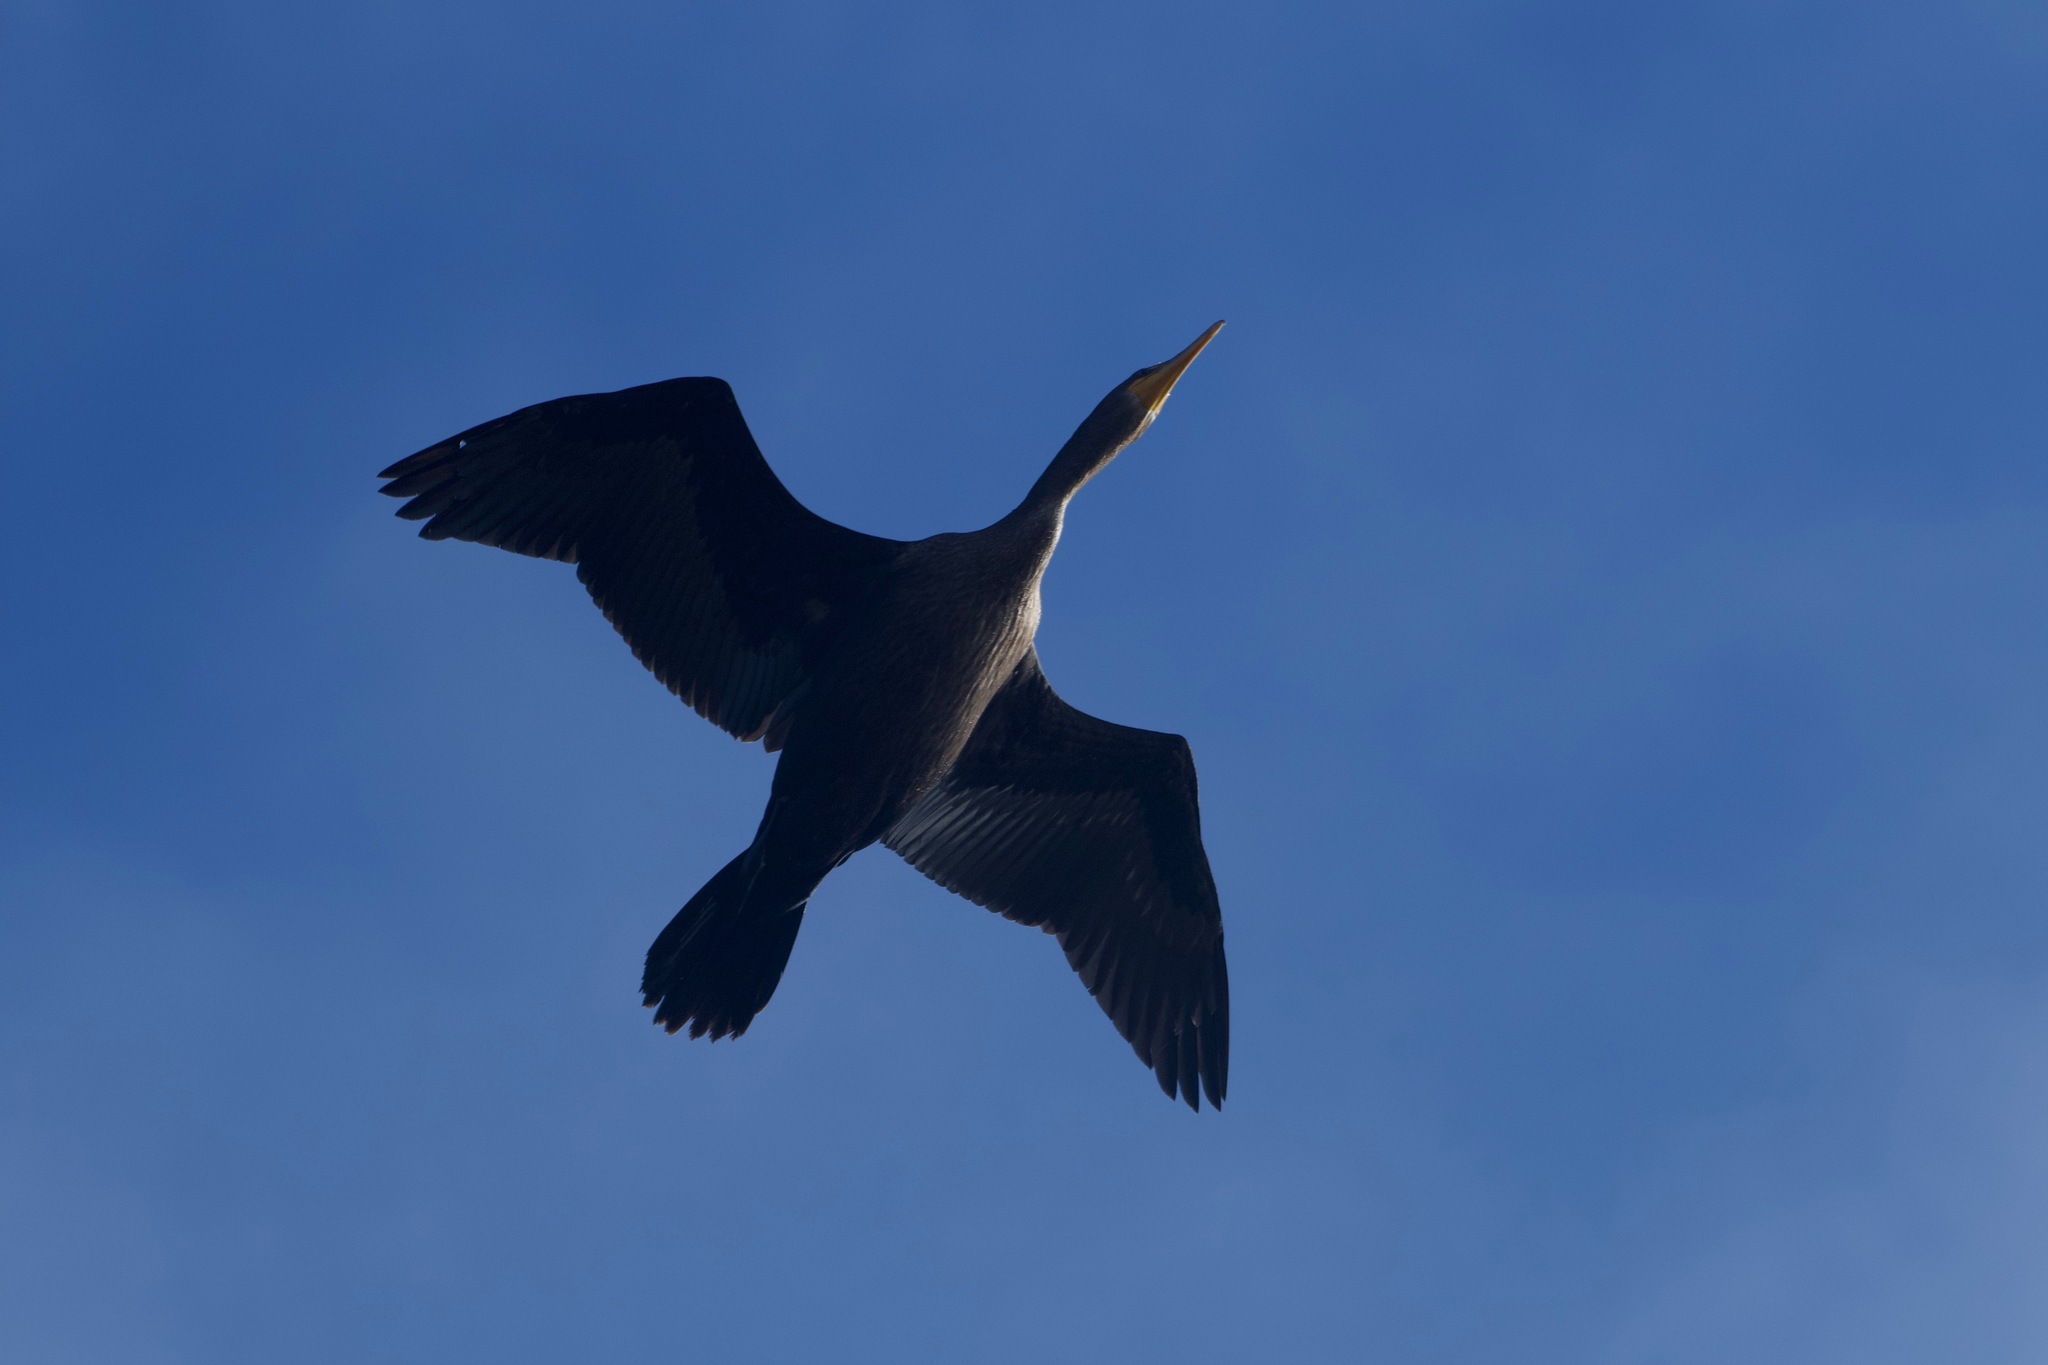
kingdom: Animalia
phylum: Chordata
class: Aves
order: Suliformes
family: Phalacrocoracidae
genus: Phalacrocorax
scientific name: Phalacrocorax auritus
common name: Double-crested cormorant
